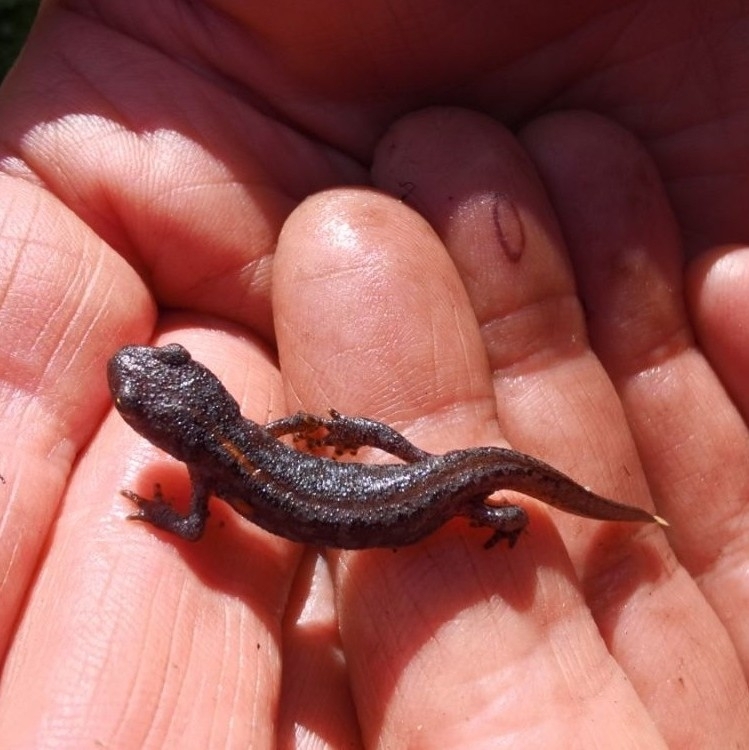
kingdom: Animalia
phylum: Chordata
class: Amphibia
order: Caudata
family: Salamandridae
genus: Ichthyosaura
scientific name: Ichthyosaura alpestris
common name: Alpine newt
